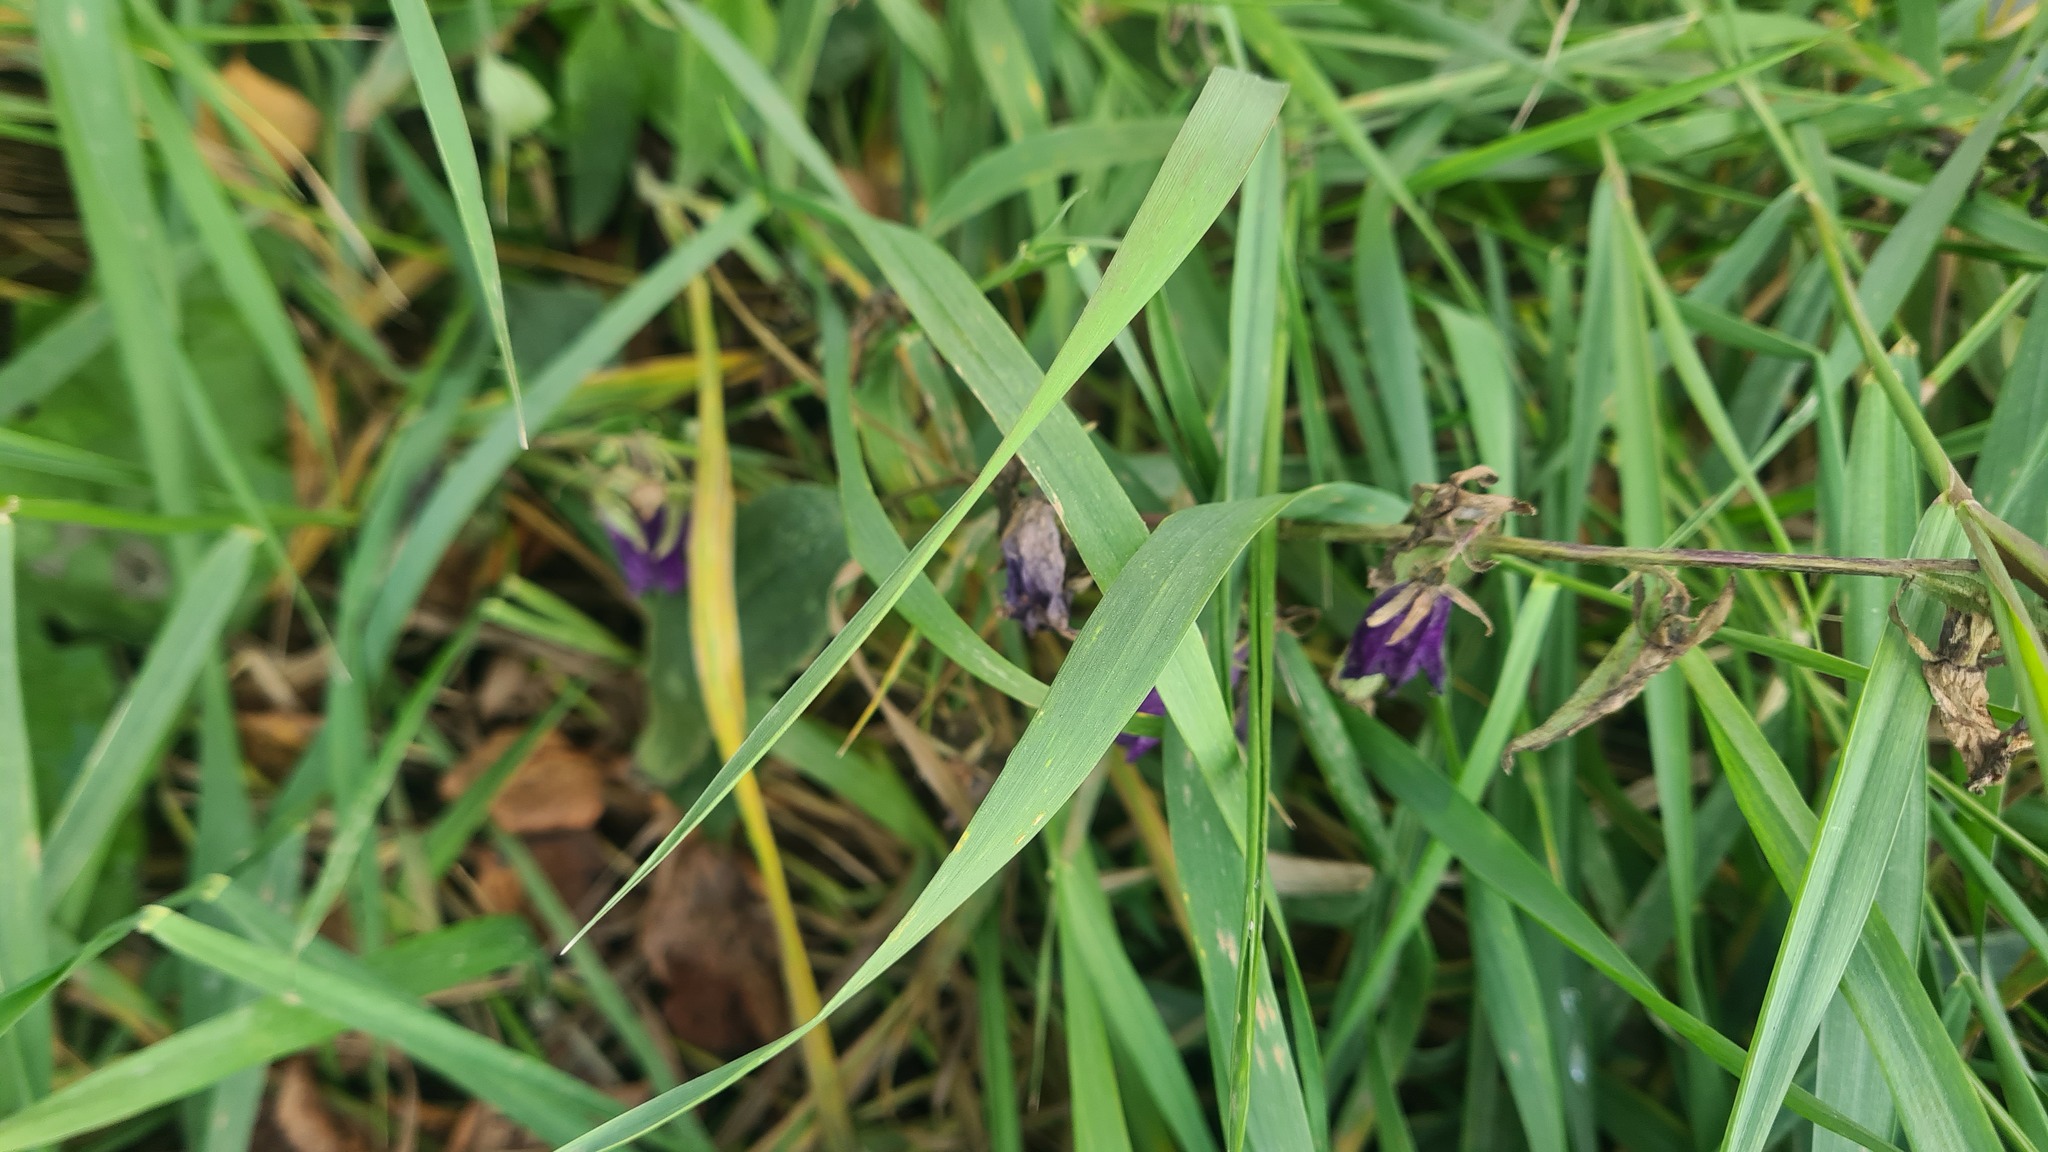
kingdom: Plantae
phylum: Tracheophyta
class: Magnoliopsida
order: Asterales
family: Campanulaceae
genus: Campanula
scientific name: Campanula rapunculoides
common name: Creeping bellflower
